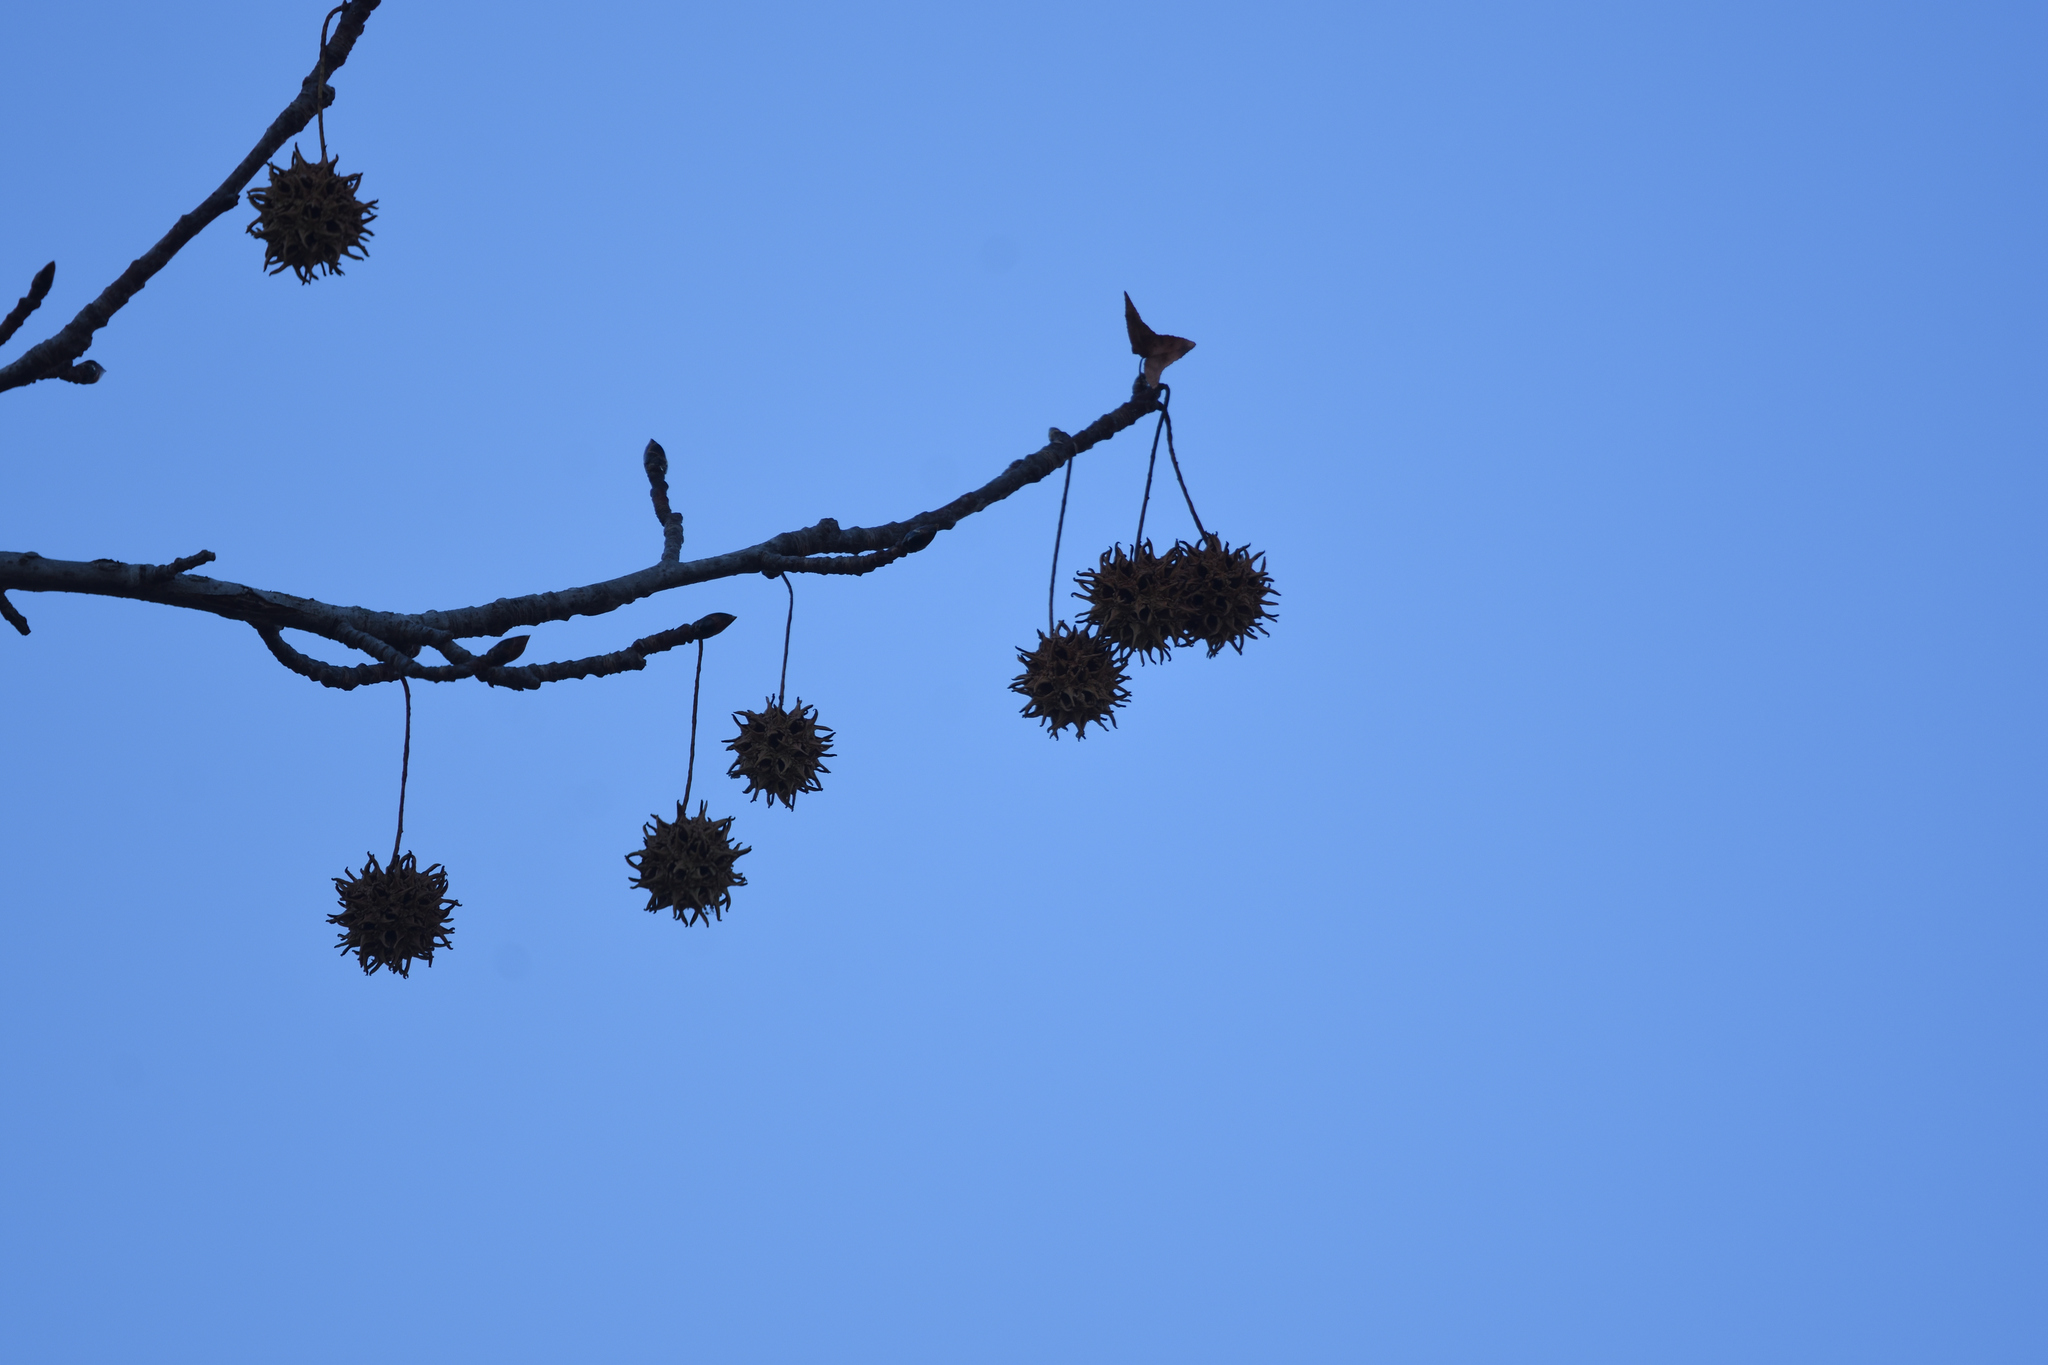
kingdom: Plantae
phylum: Tracheophyta
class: Magnoliopsida
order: Saxifragales
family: Altingiaceae
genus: Liquidambar
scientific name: Liquidambar styraciflua
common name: Sweet gum
